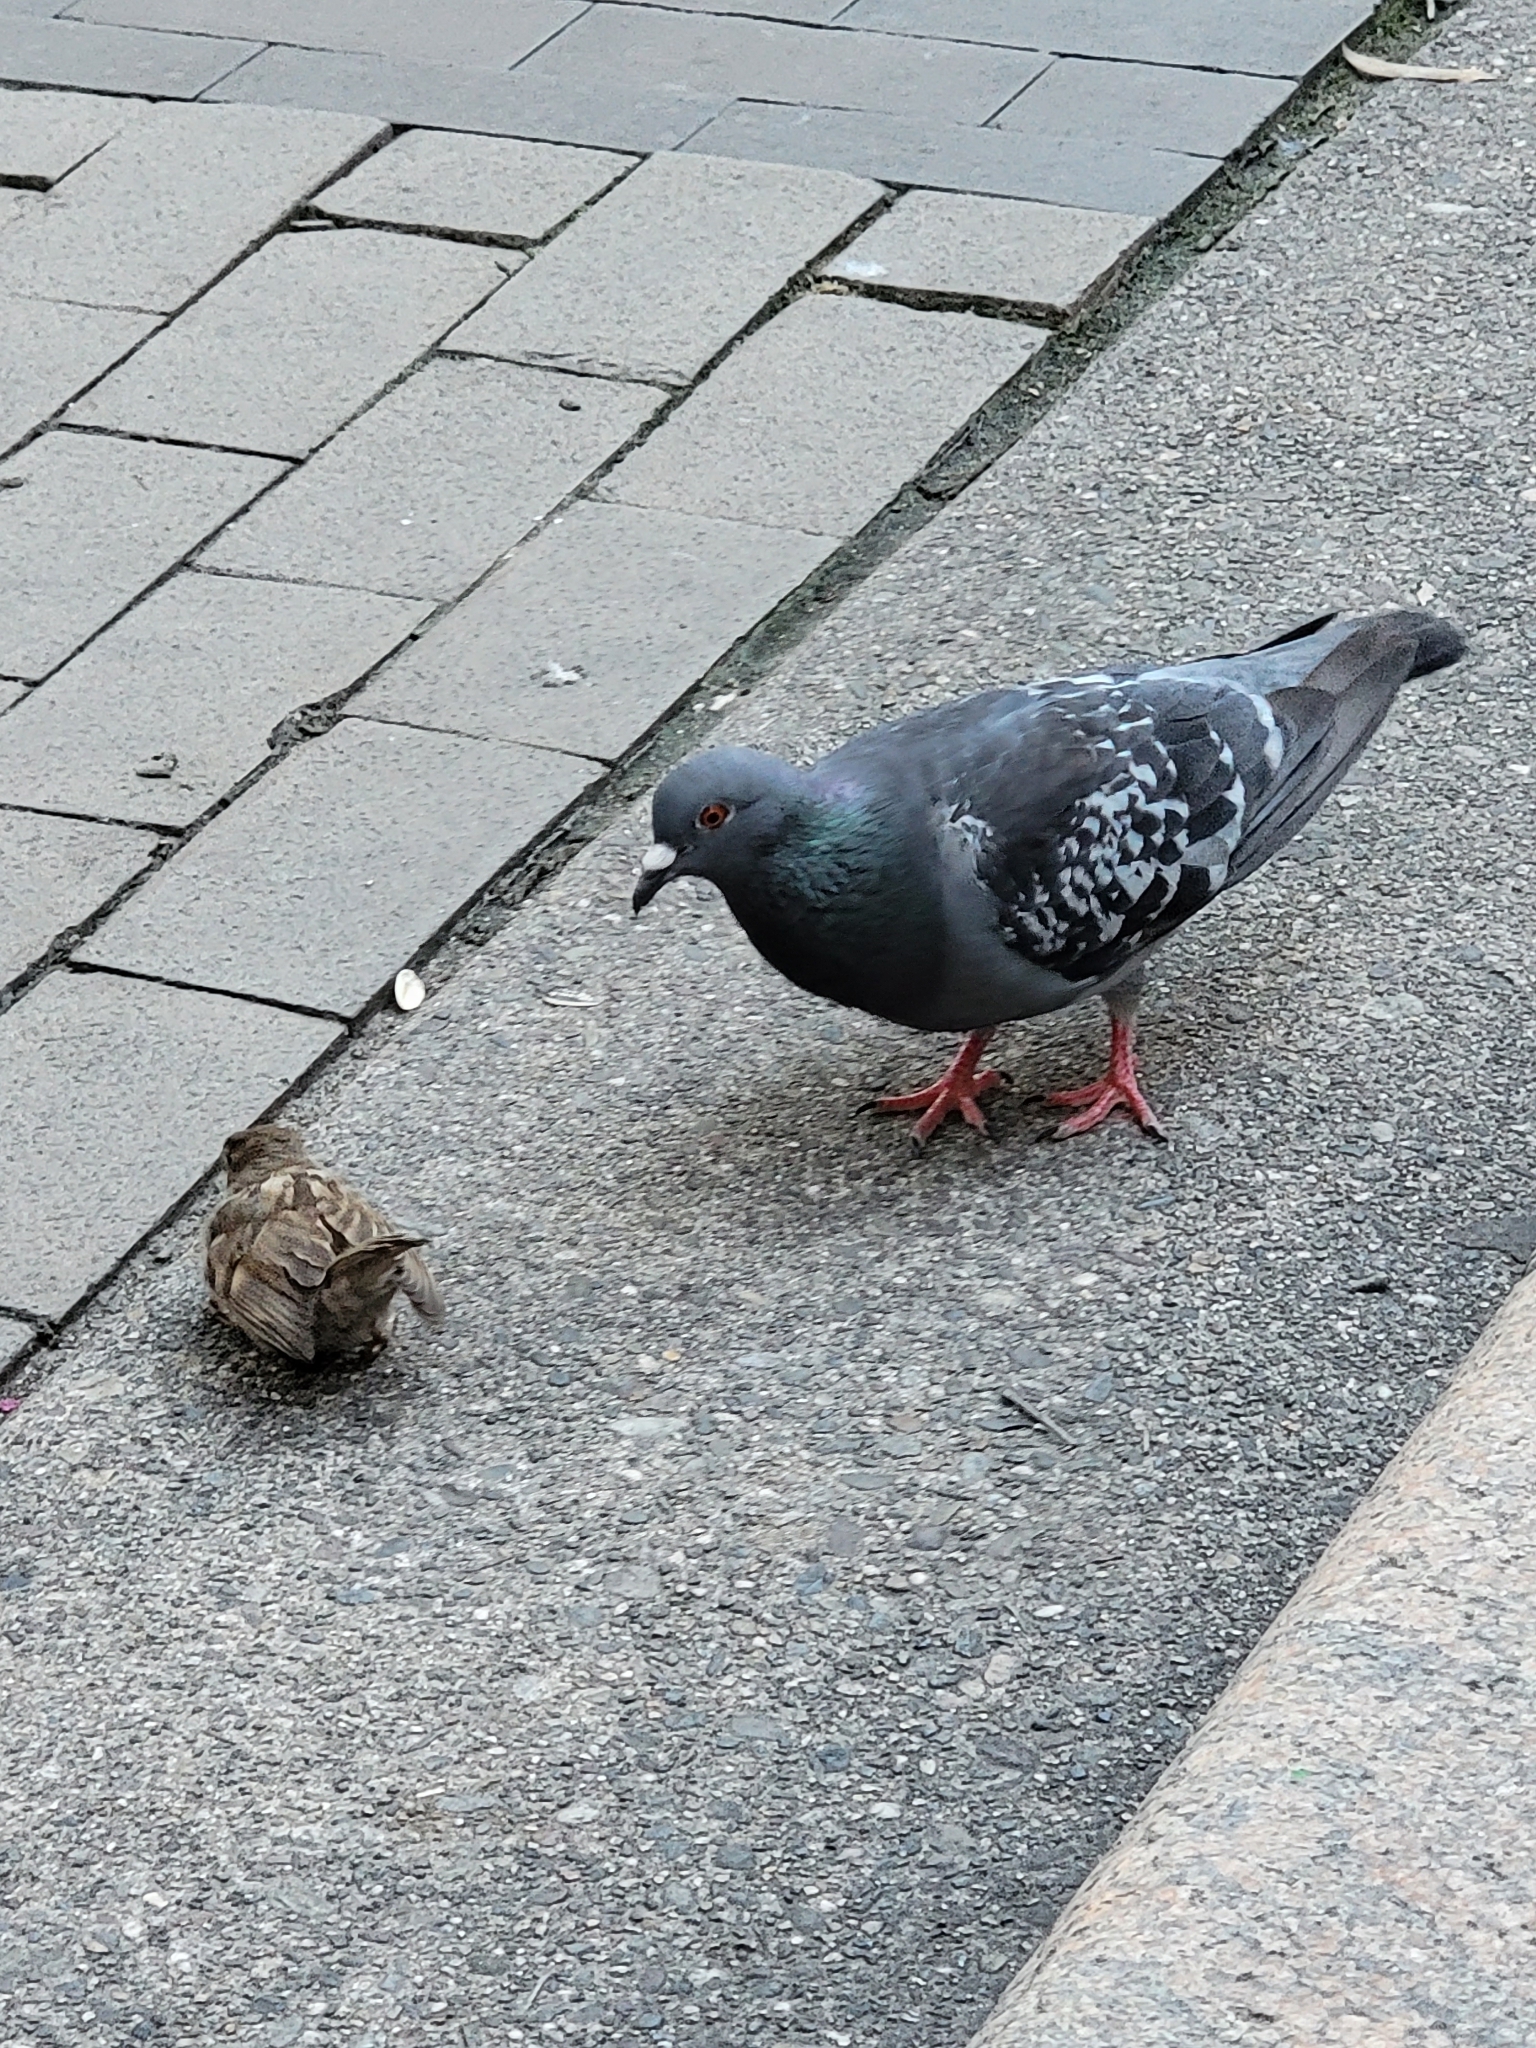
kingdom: Animalia
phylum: Chordata
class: Aves
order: Columbiformes
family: Columbidae
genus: Columba
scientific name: Columba livia
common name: Rock pigeon
